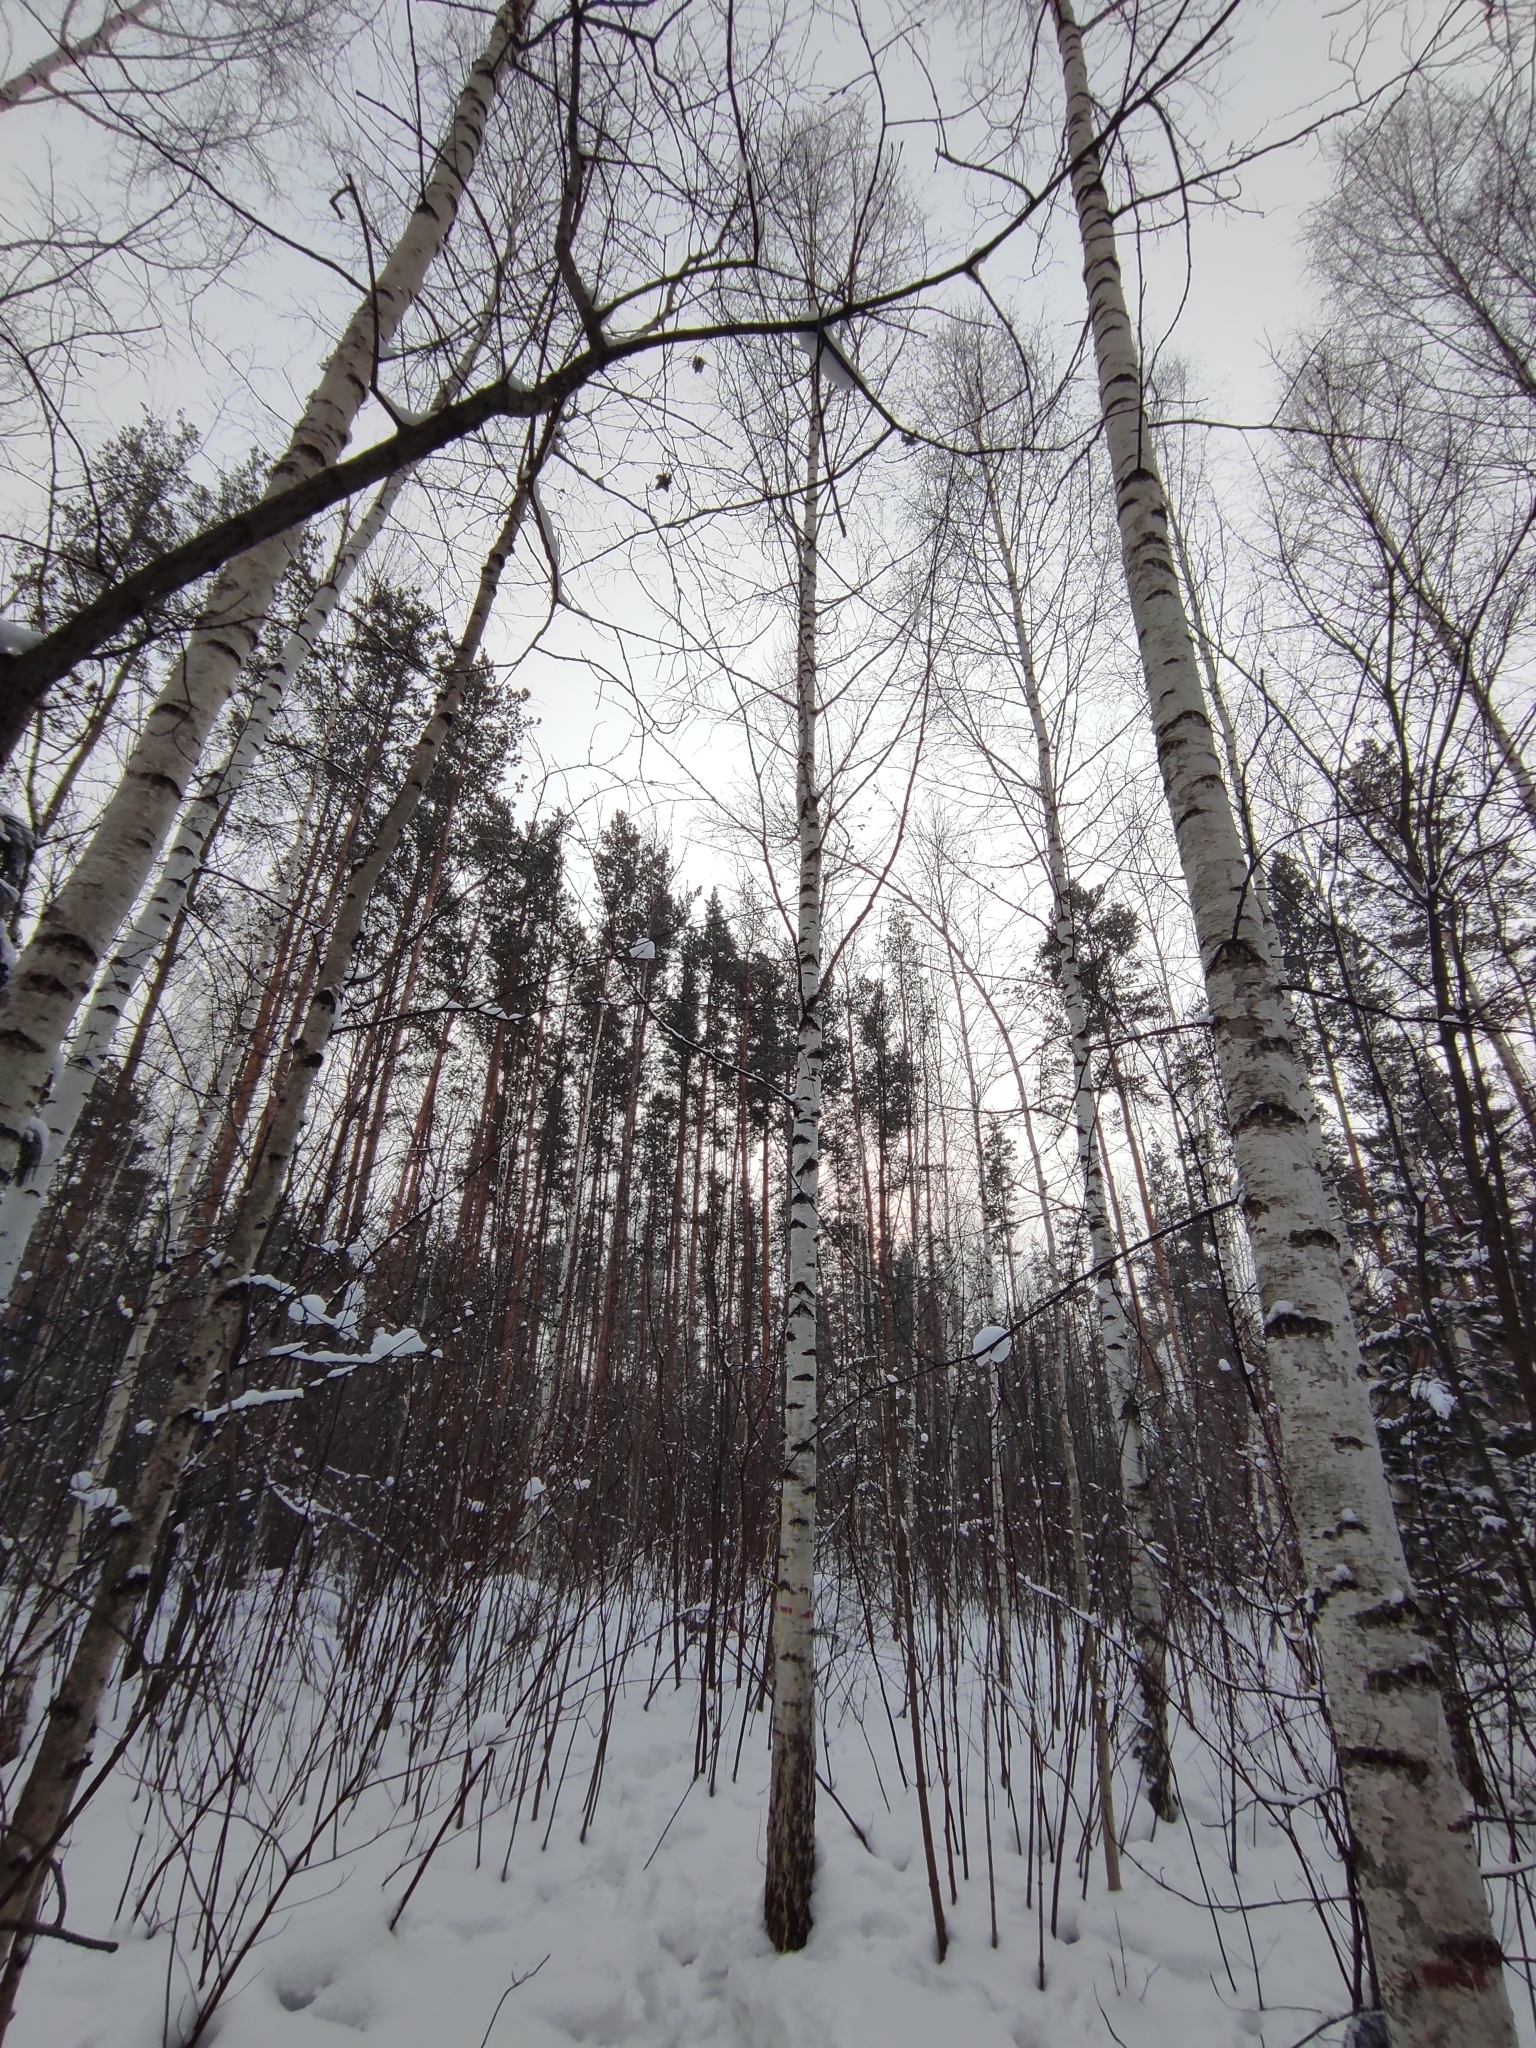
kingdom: Plantae
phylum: Tracheophyta
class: Pinopsida
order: Pinales
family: Pinaceae
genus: Pinus
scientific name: Pinus sylvestris
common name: Scots pine
